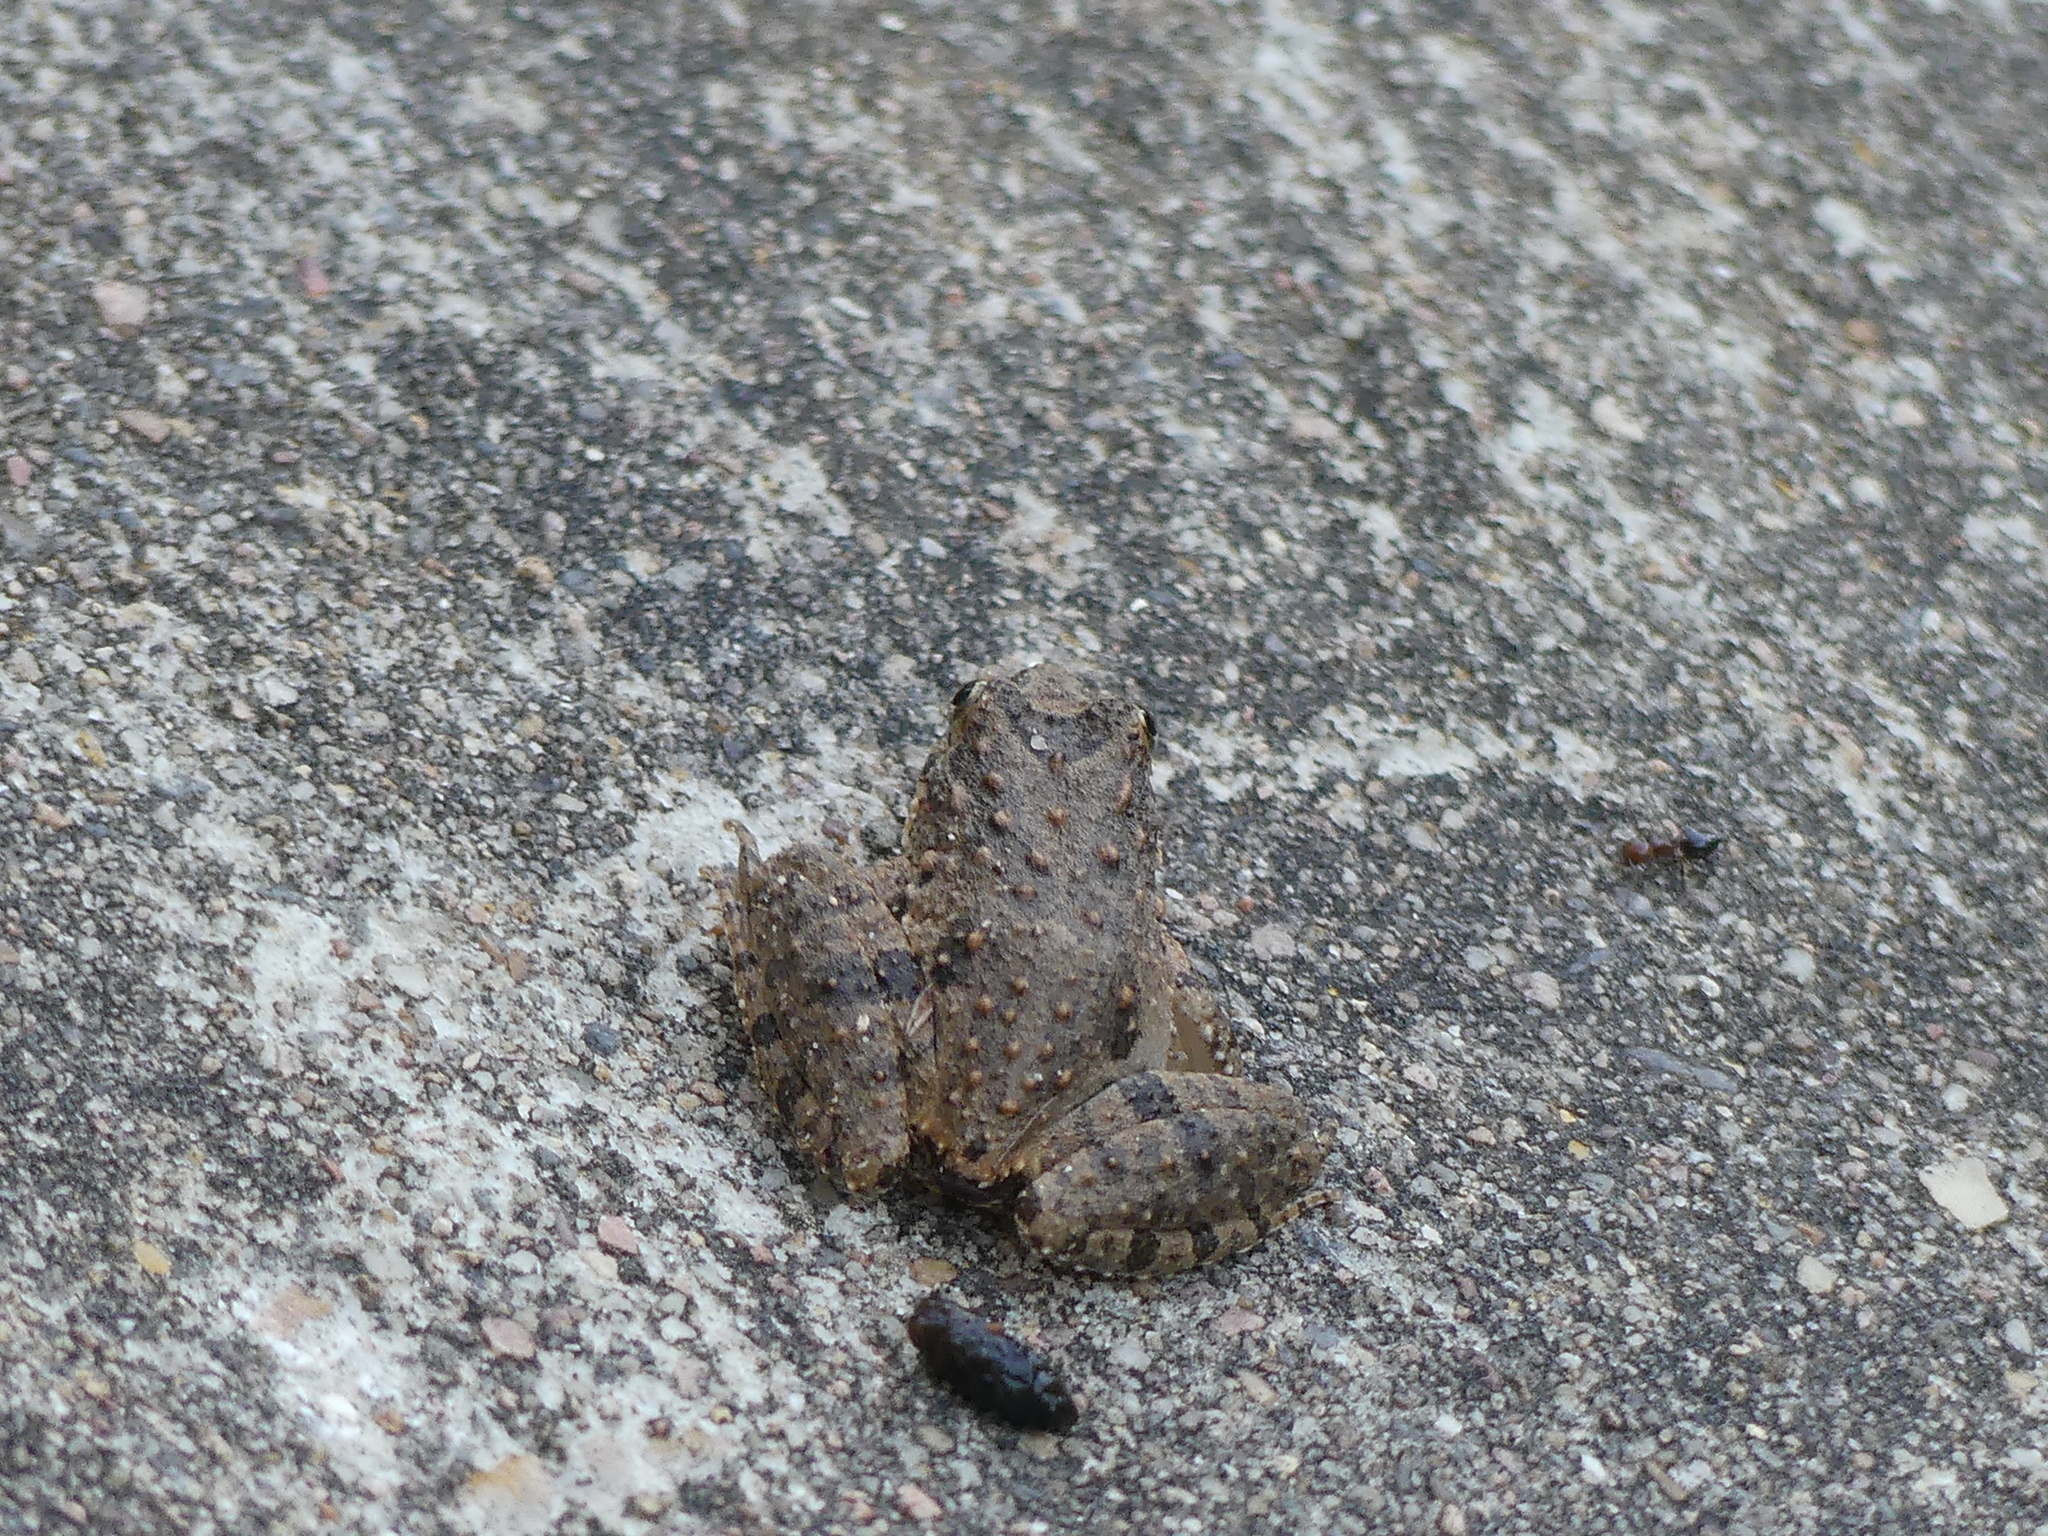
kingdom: Animalia
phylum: Chordata
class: Amphibia
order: Anura
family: Hylidae
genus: Acris
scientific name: Acris blanchardi
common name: Blanchard's cricket frog
